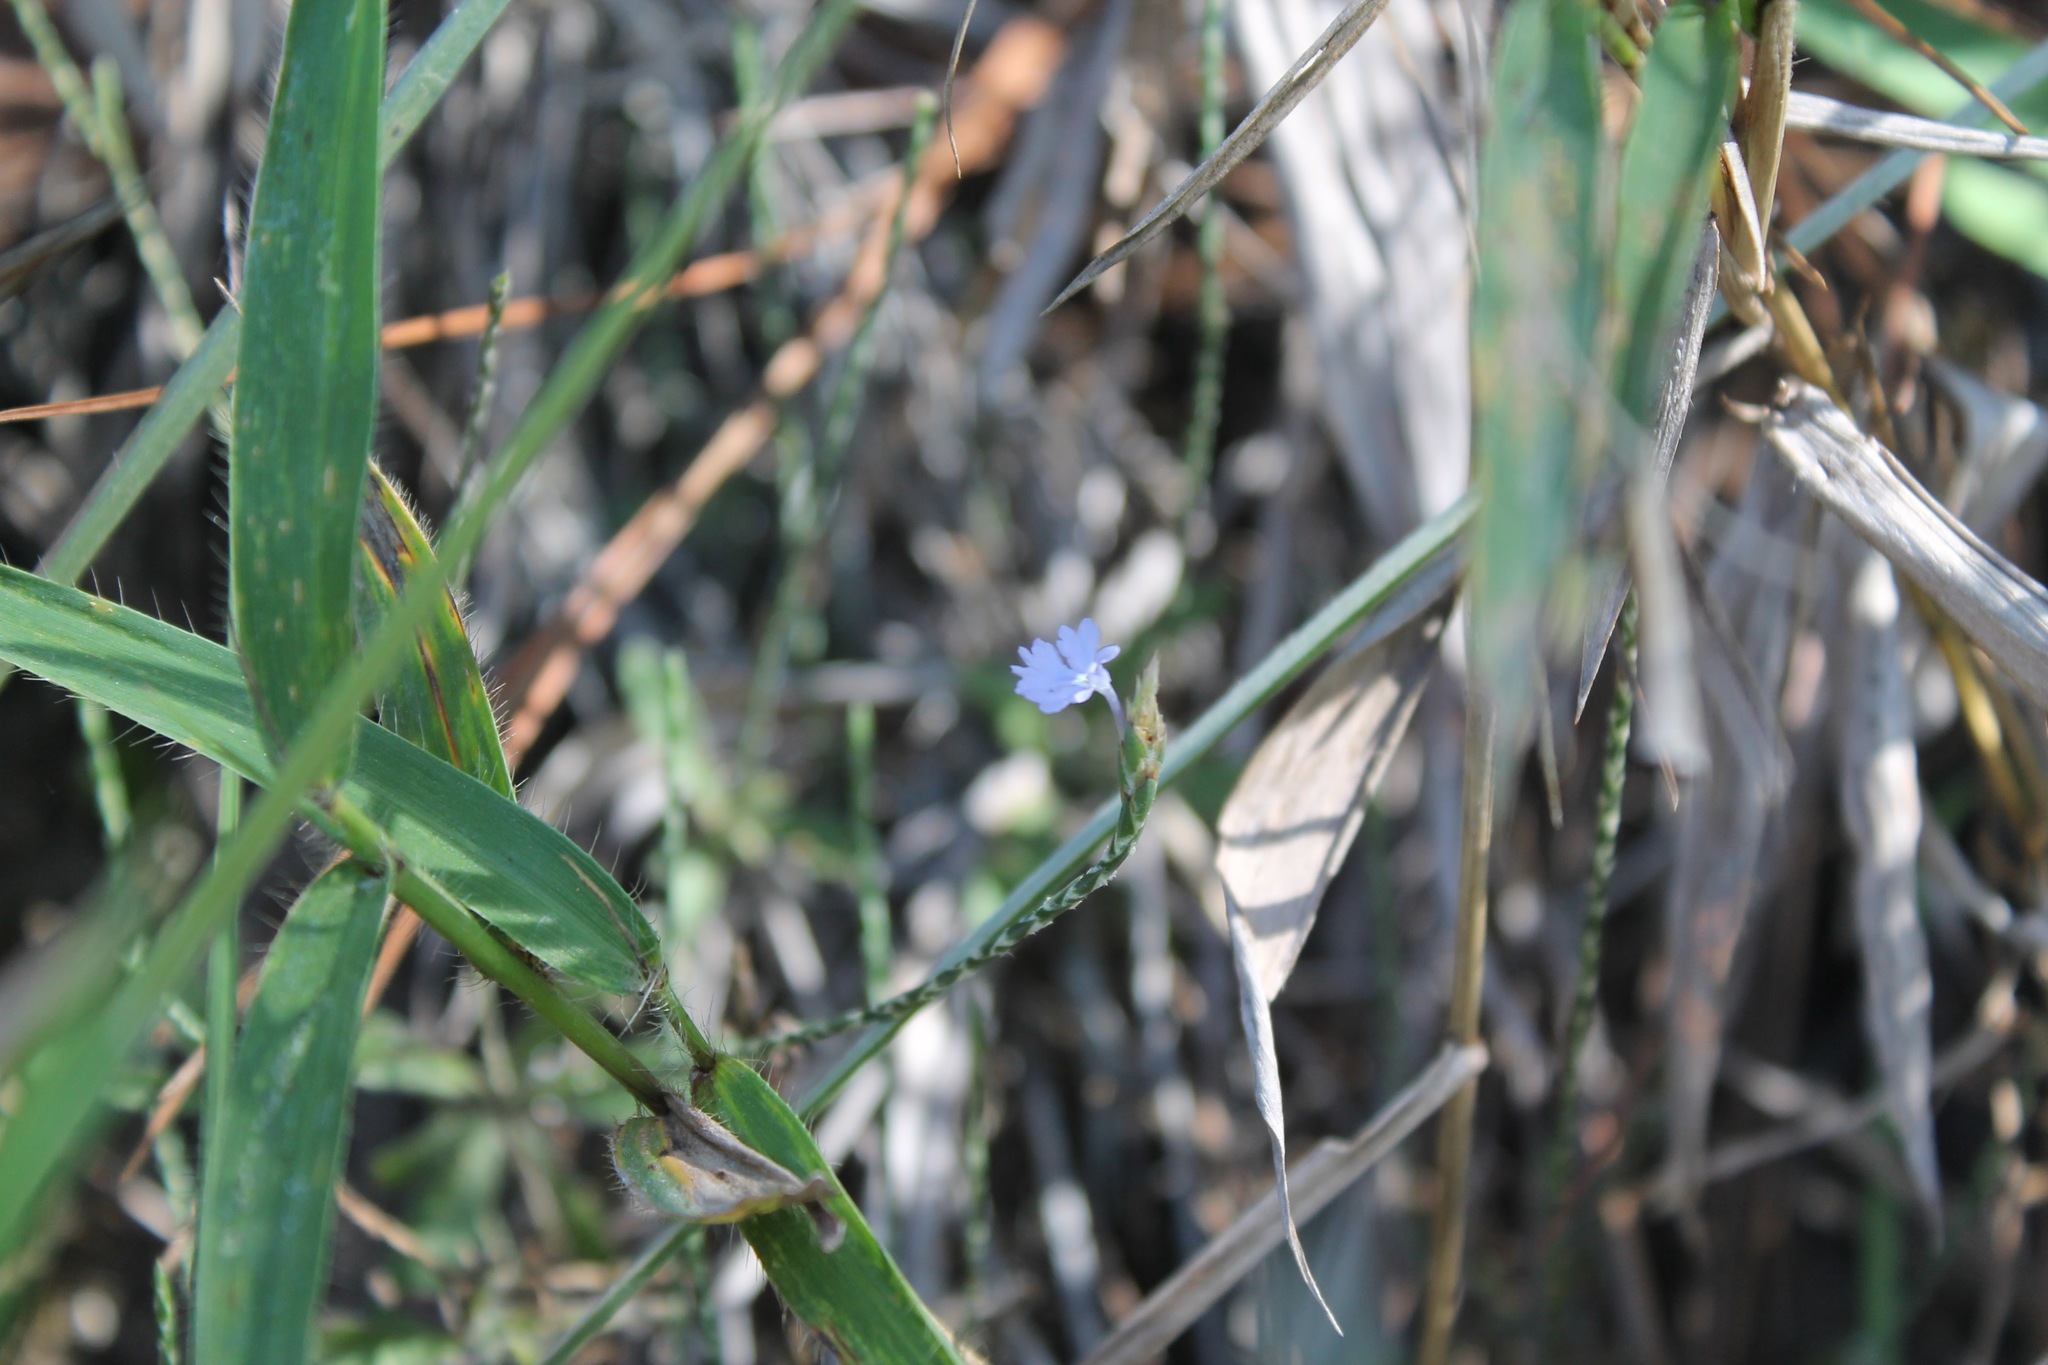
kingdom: Plantae
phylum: Tracheophyta
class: Magnoliopsida
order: Lamiales
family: Acanthaceae
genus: Elytraria
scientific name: Elytraria imbricata
